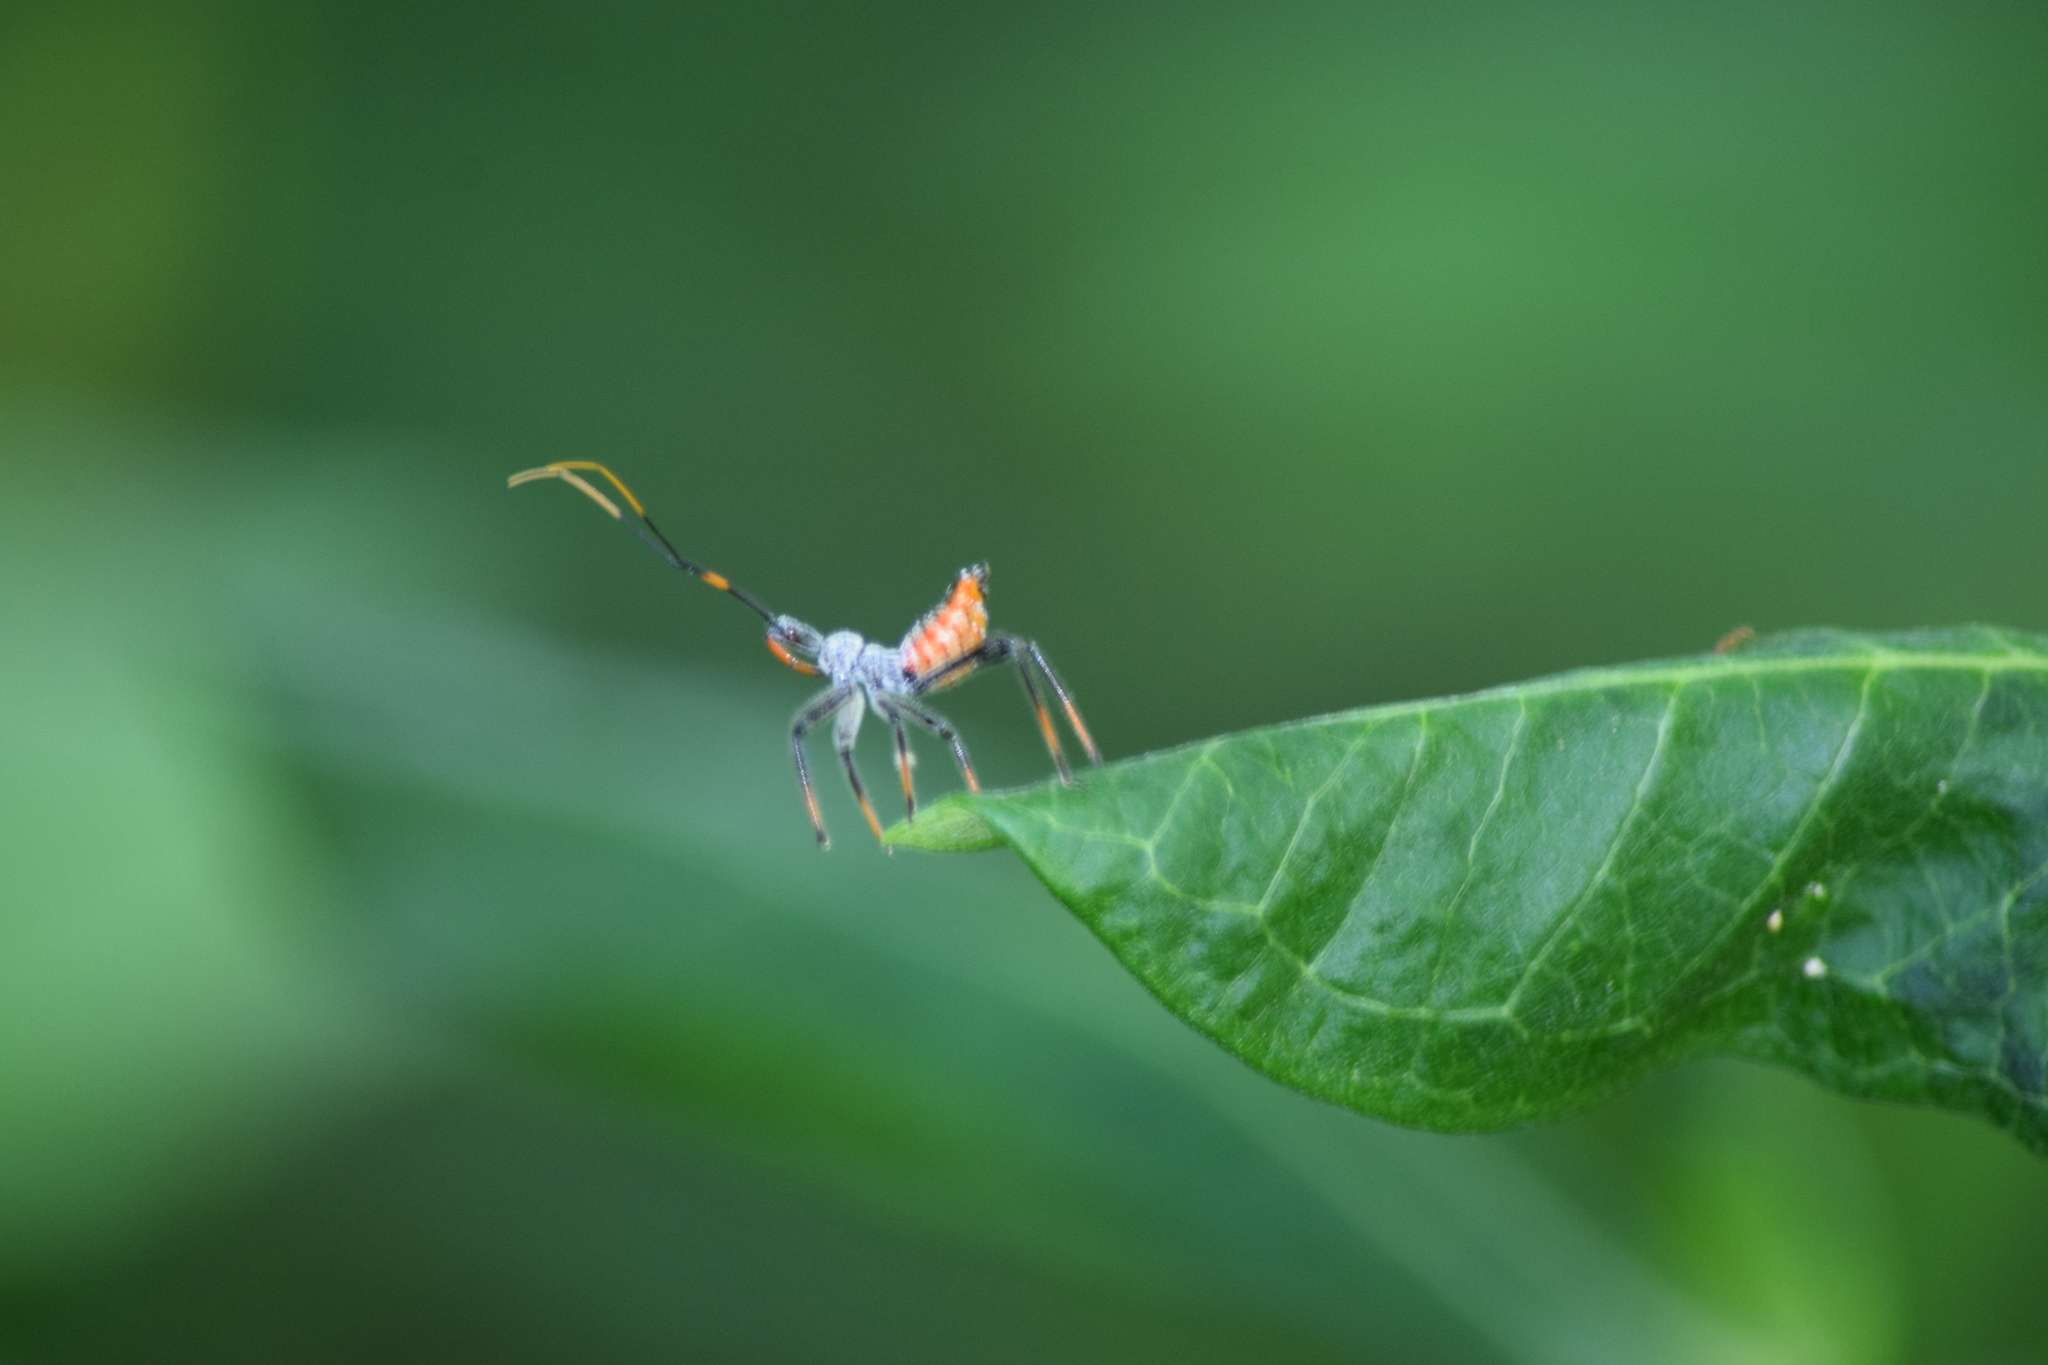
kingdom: Animalia
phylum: Arthropoda
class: Insecta
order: Hemiptera
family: Reduviidae
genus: Arilus
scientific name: Arilus cristatus
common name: North american wheel bug
